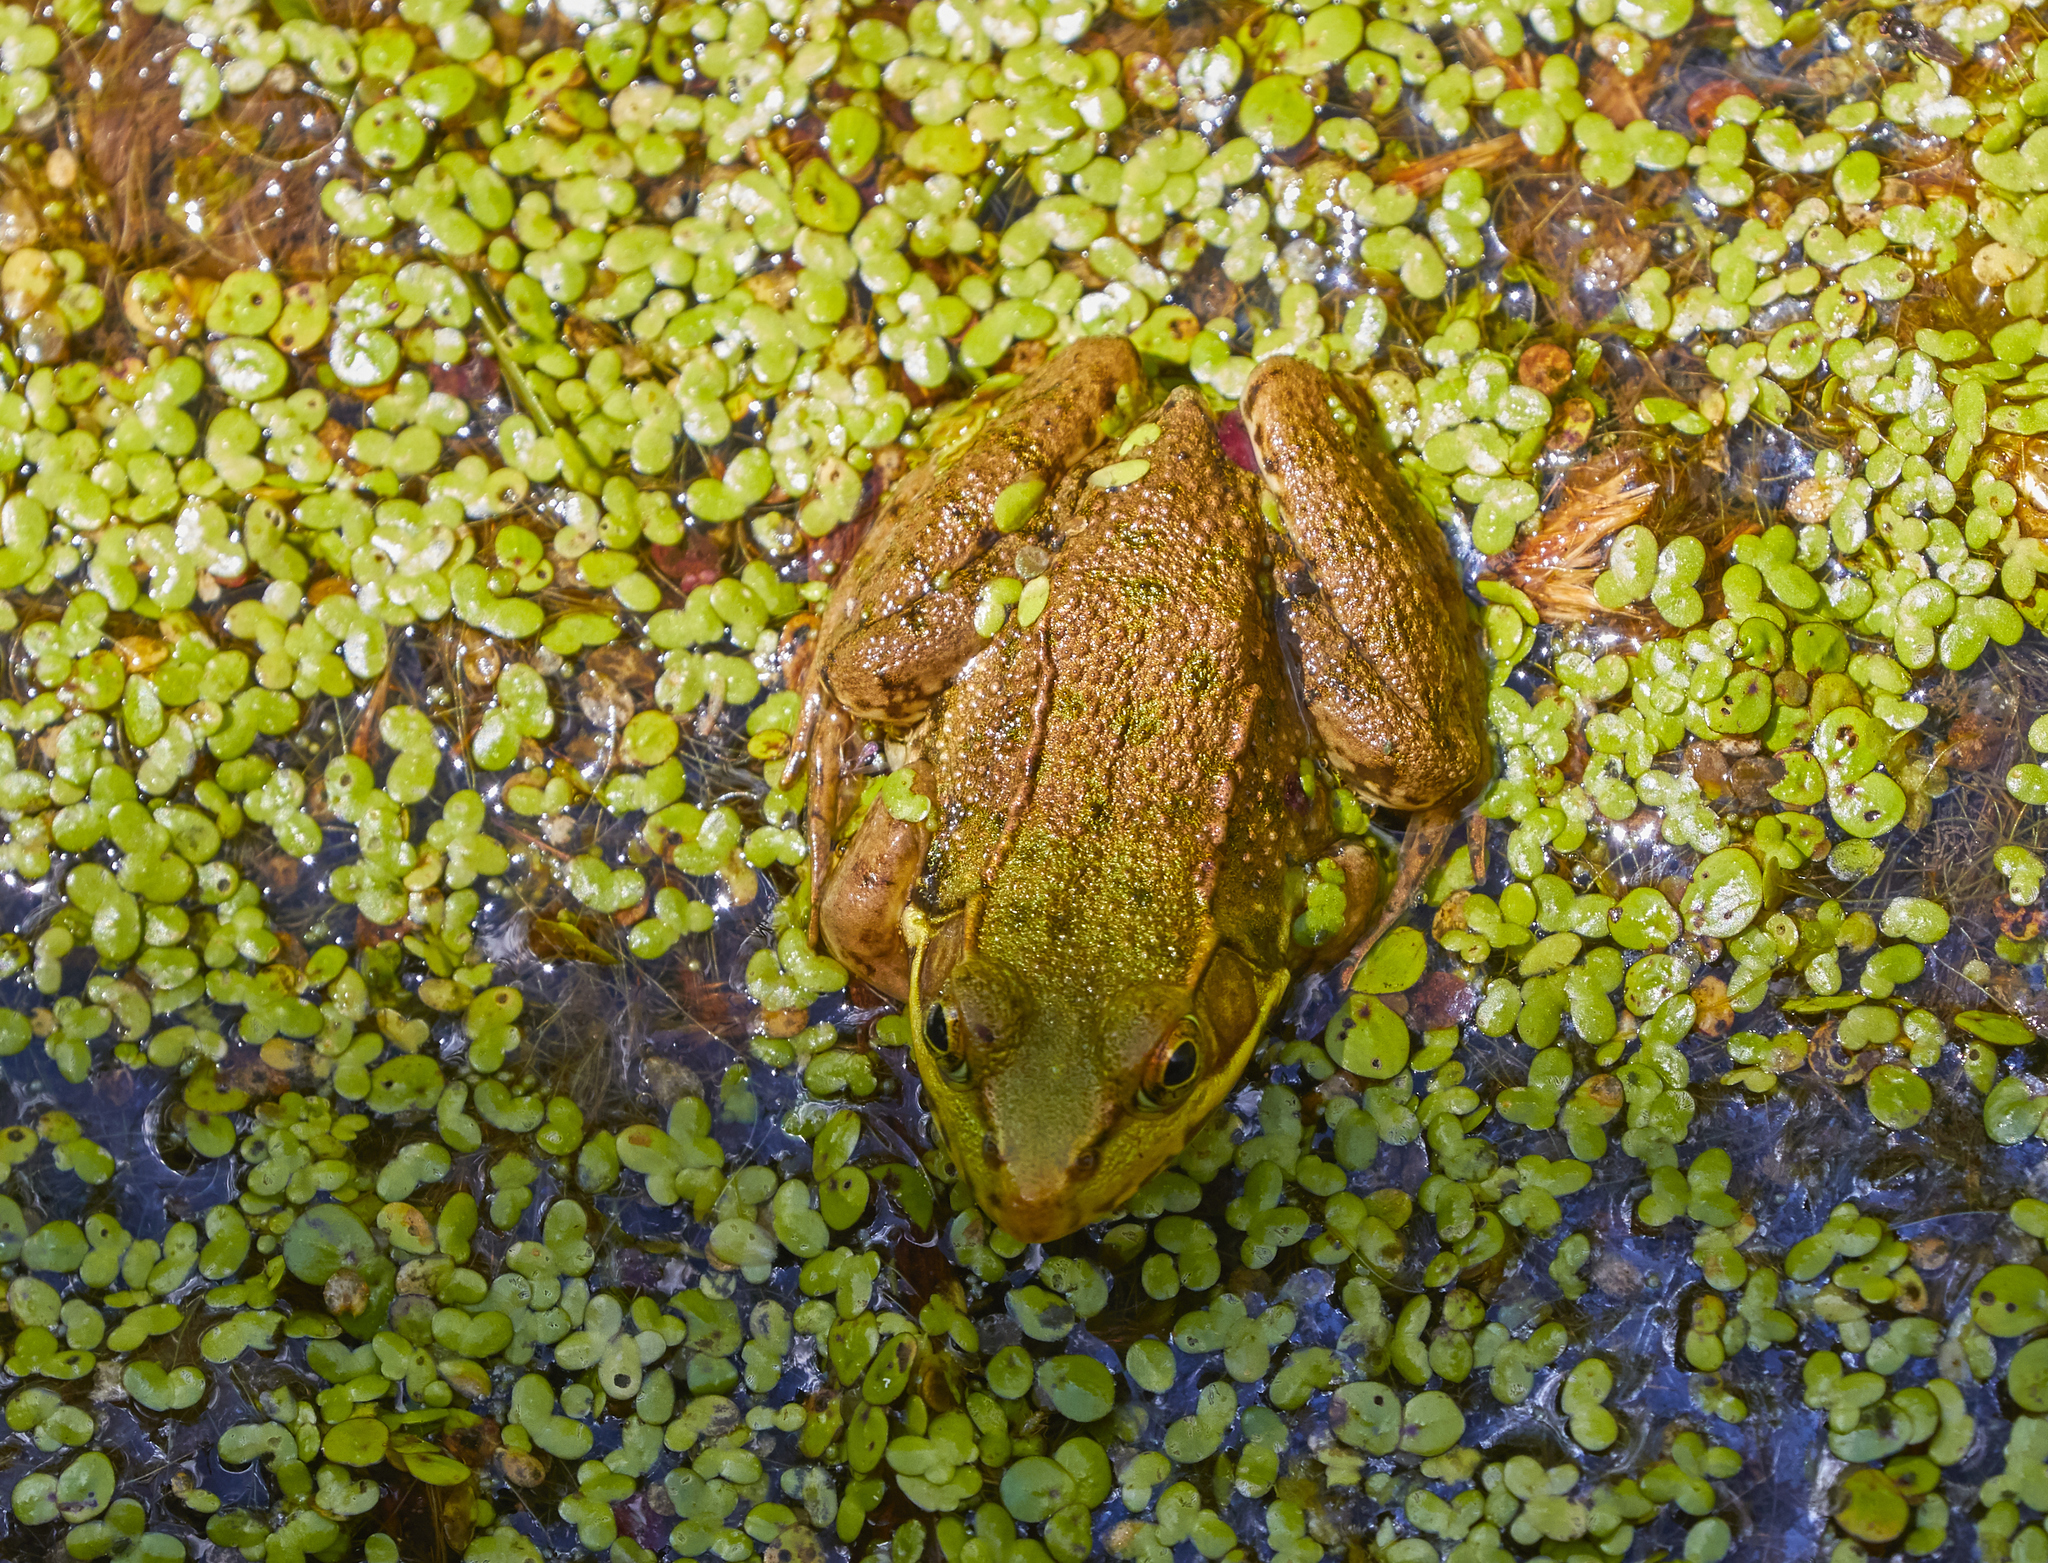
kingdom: Animalia
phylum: Chordata
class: Amphibia
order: Anura
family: Ranidae
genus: Lithobates
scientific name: Lithobates clamitans
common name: Green frog
